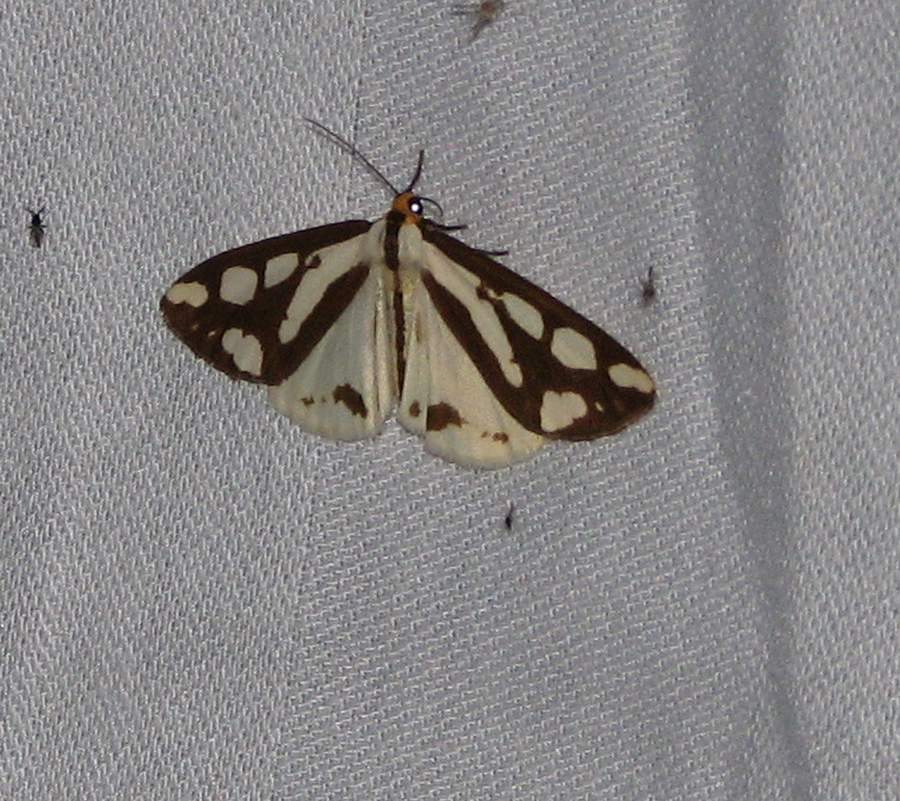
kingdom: Animalia
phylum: Arthropoda
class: Insecta
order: Lepidoptera
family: Erebidae
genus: Haploa
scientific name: Haploa confusa
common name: Confused haploa moth
